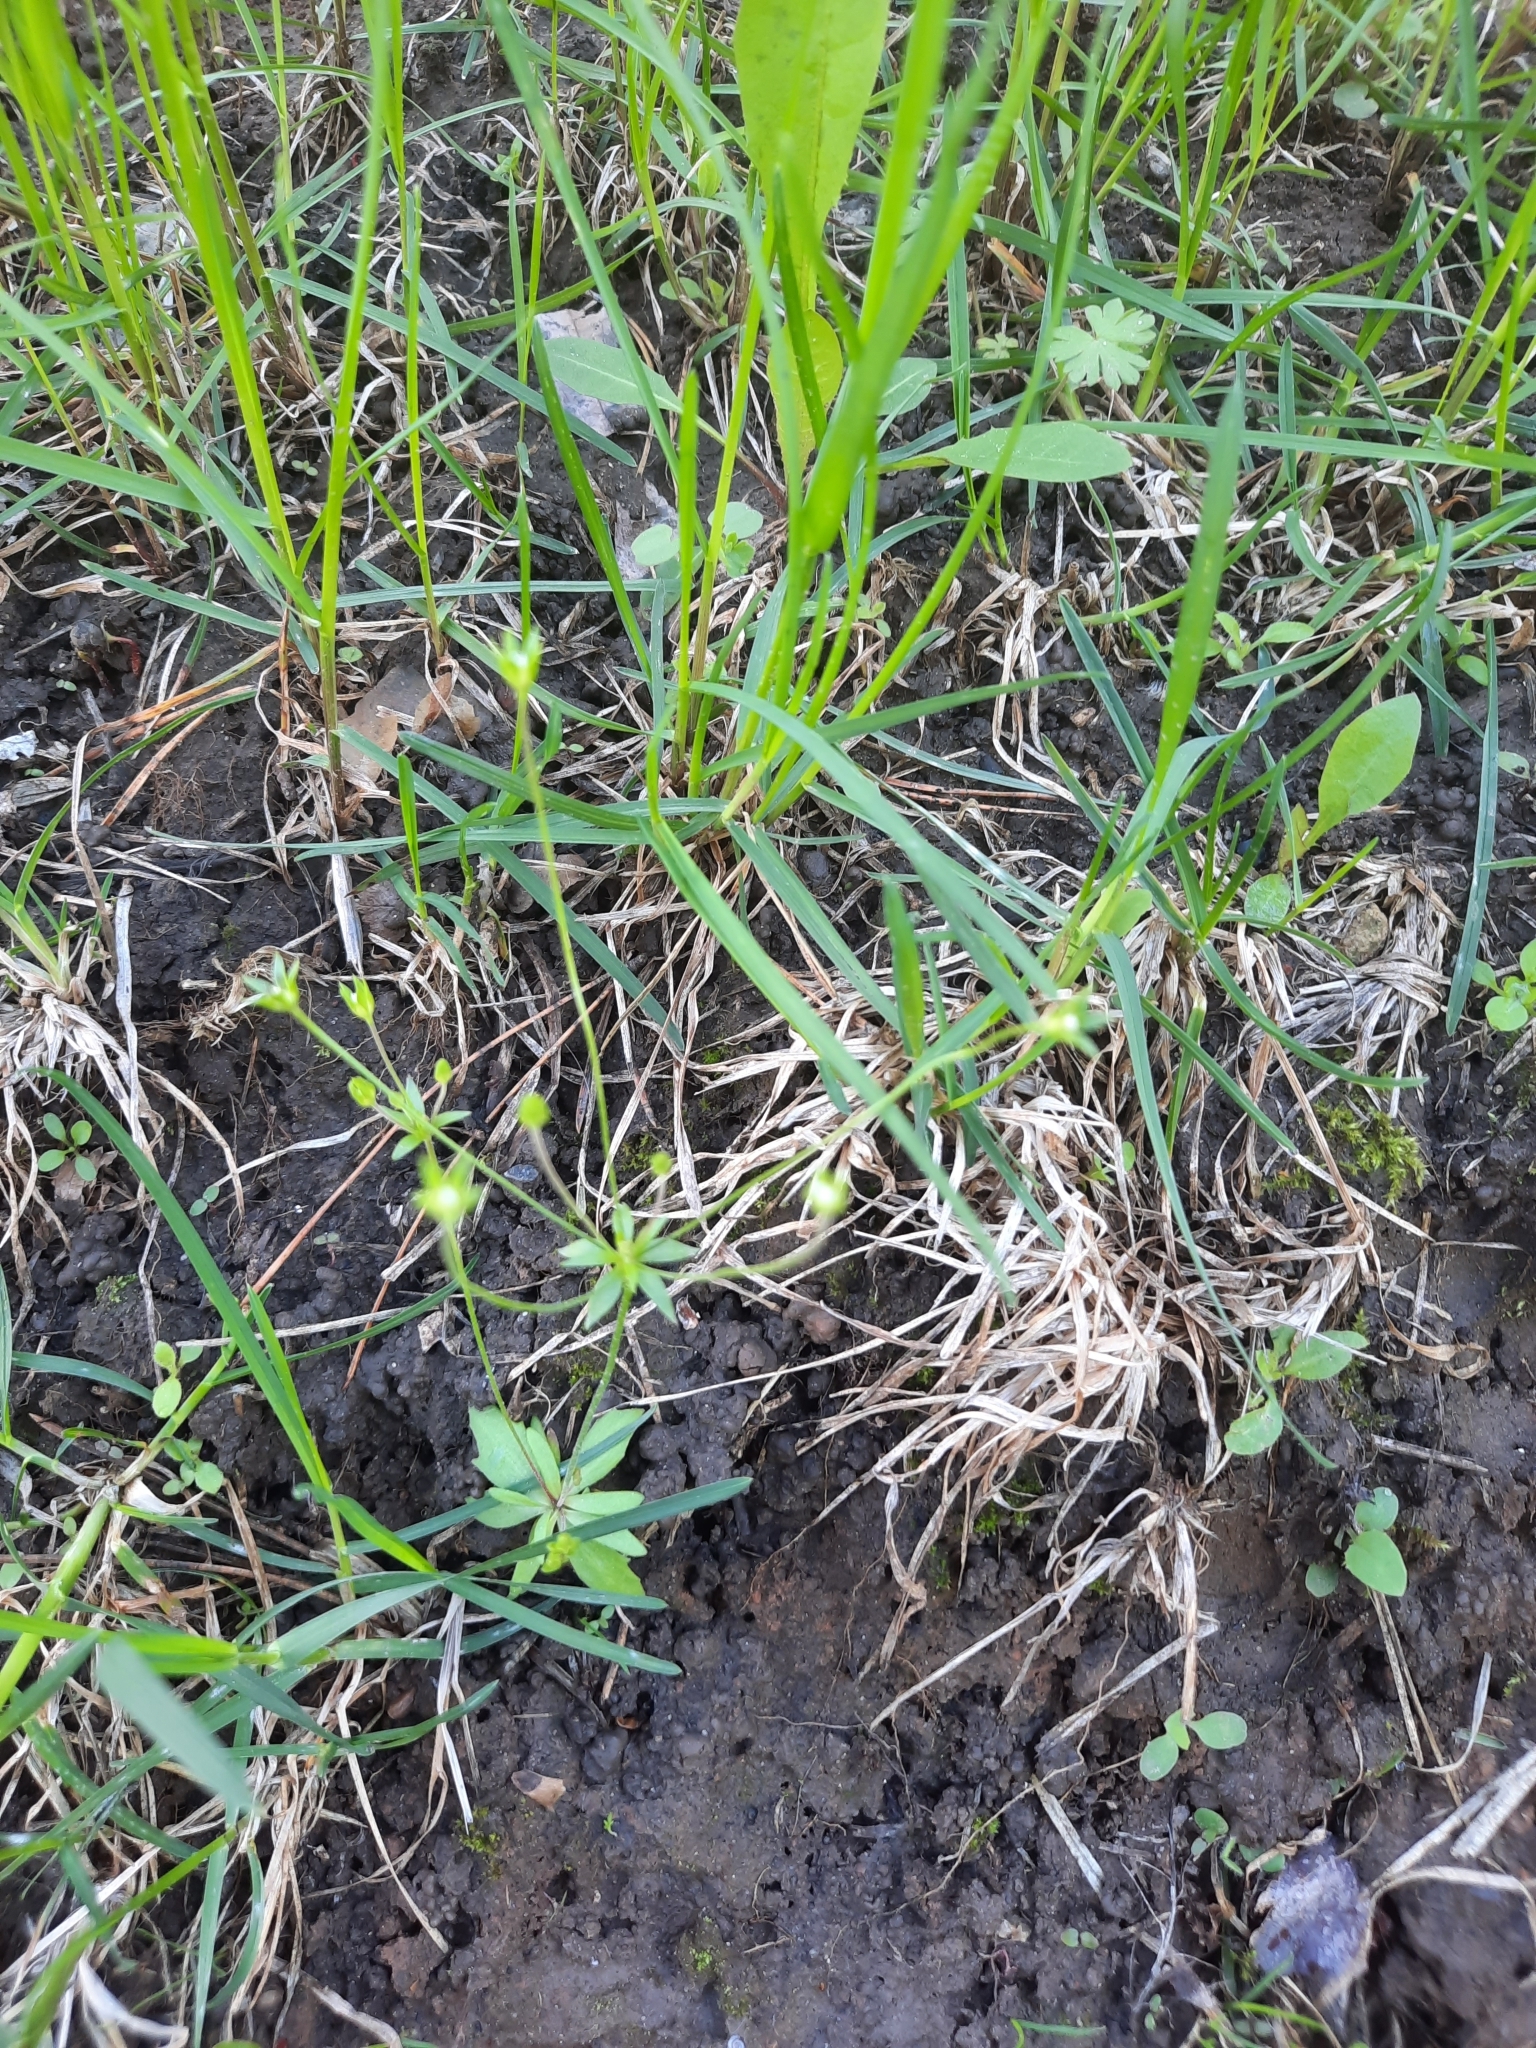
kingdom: Plantae
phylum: Tracheophyta
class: Magnoliopsida
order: Ericales
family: Primulaceae
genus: Androsace
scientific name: Androsace septentrionalis
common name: Hairy northern fairy-candelabra
